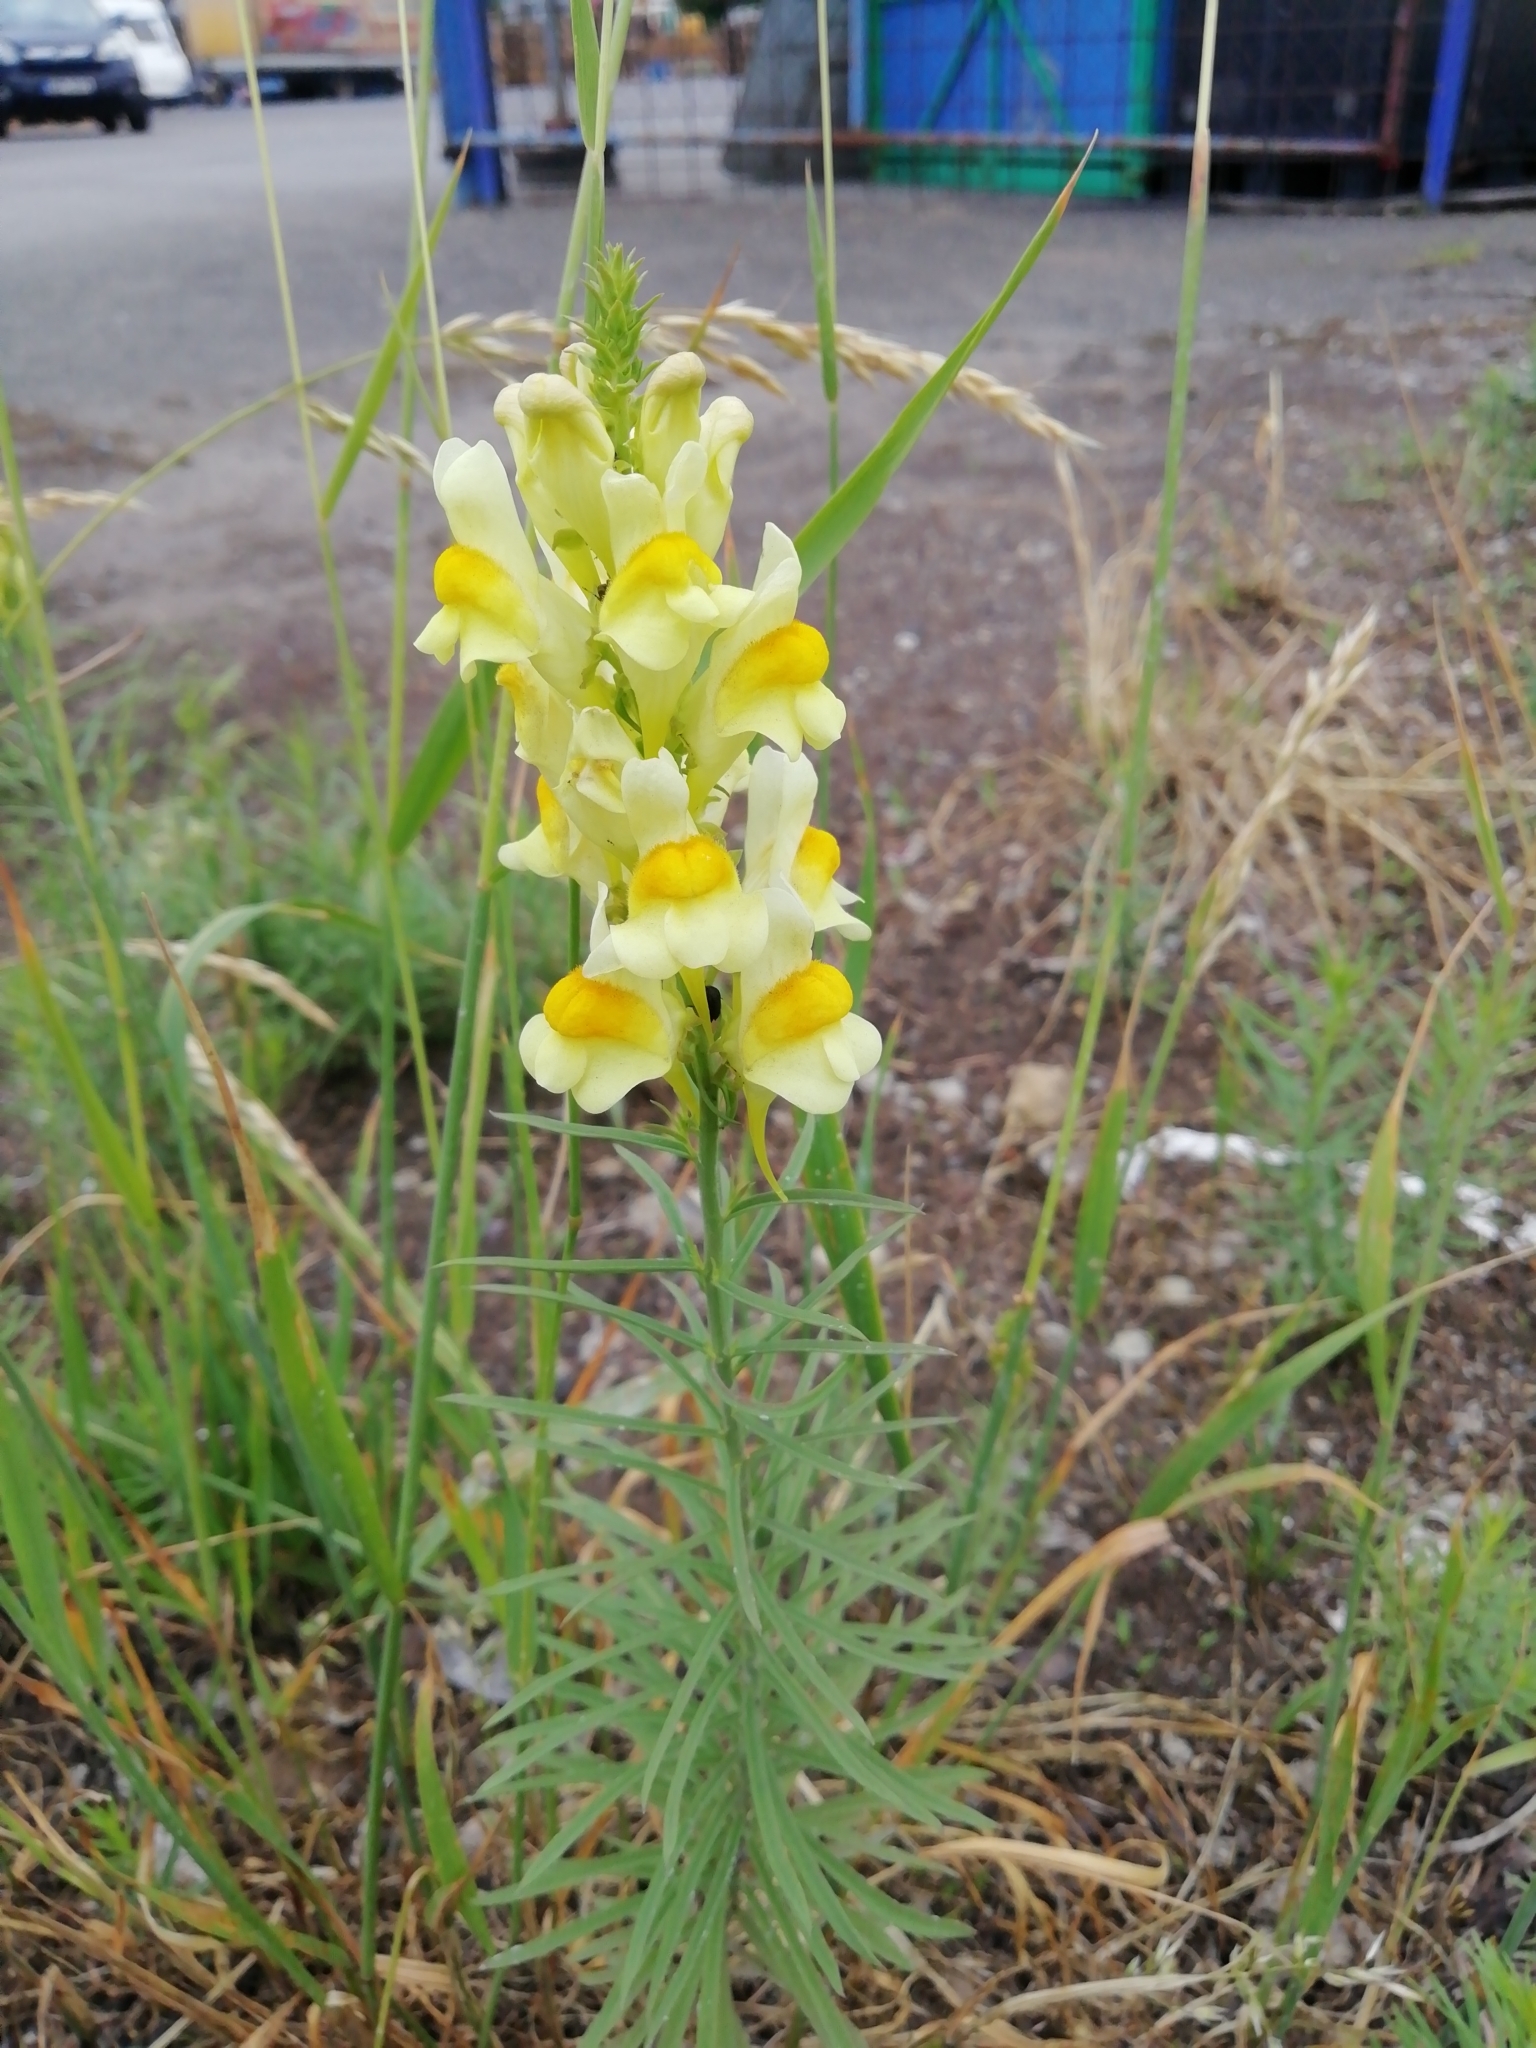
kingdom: Plantae
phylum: Tracheophyta
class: Magnoliopsida
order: Lamiales
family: Plantaginaceae
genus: Linaria
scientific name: Linaria vulgaris
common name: Butter and eggs
